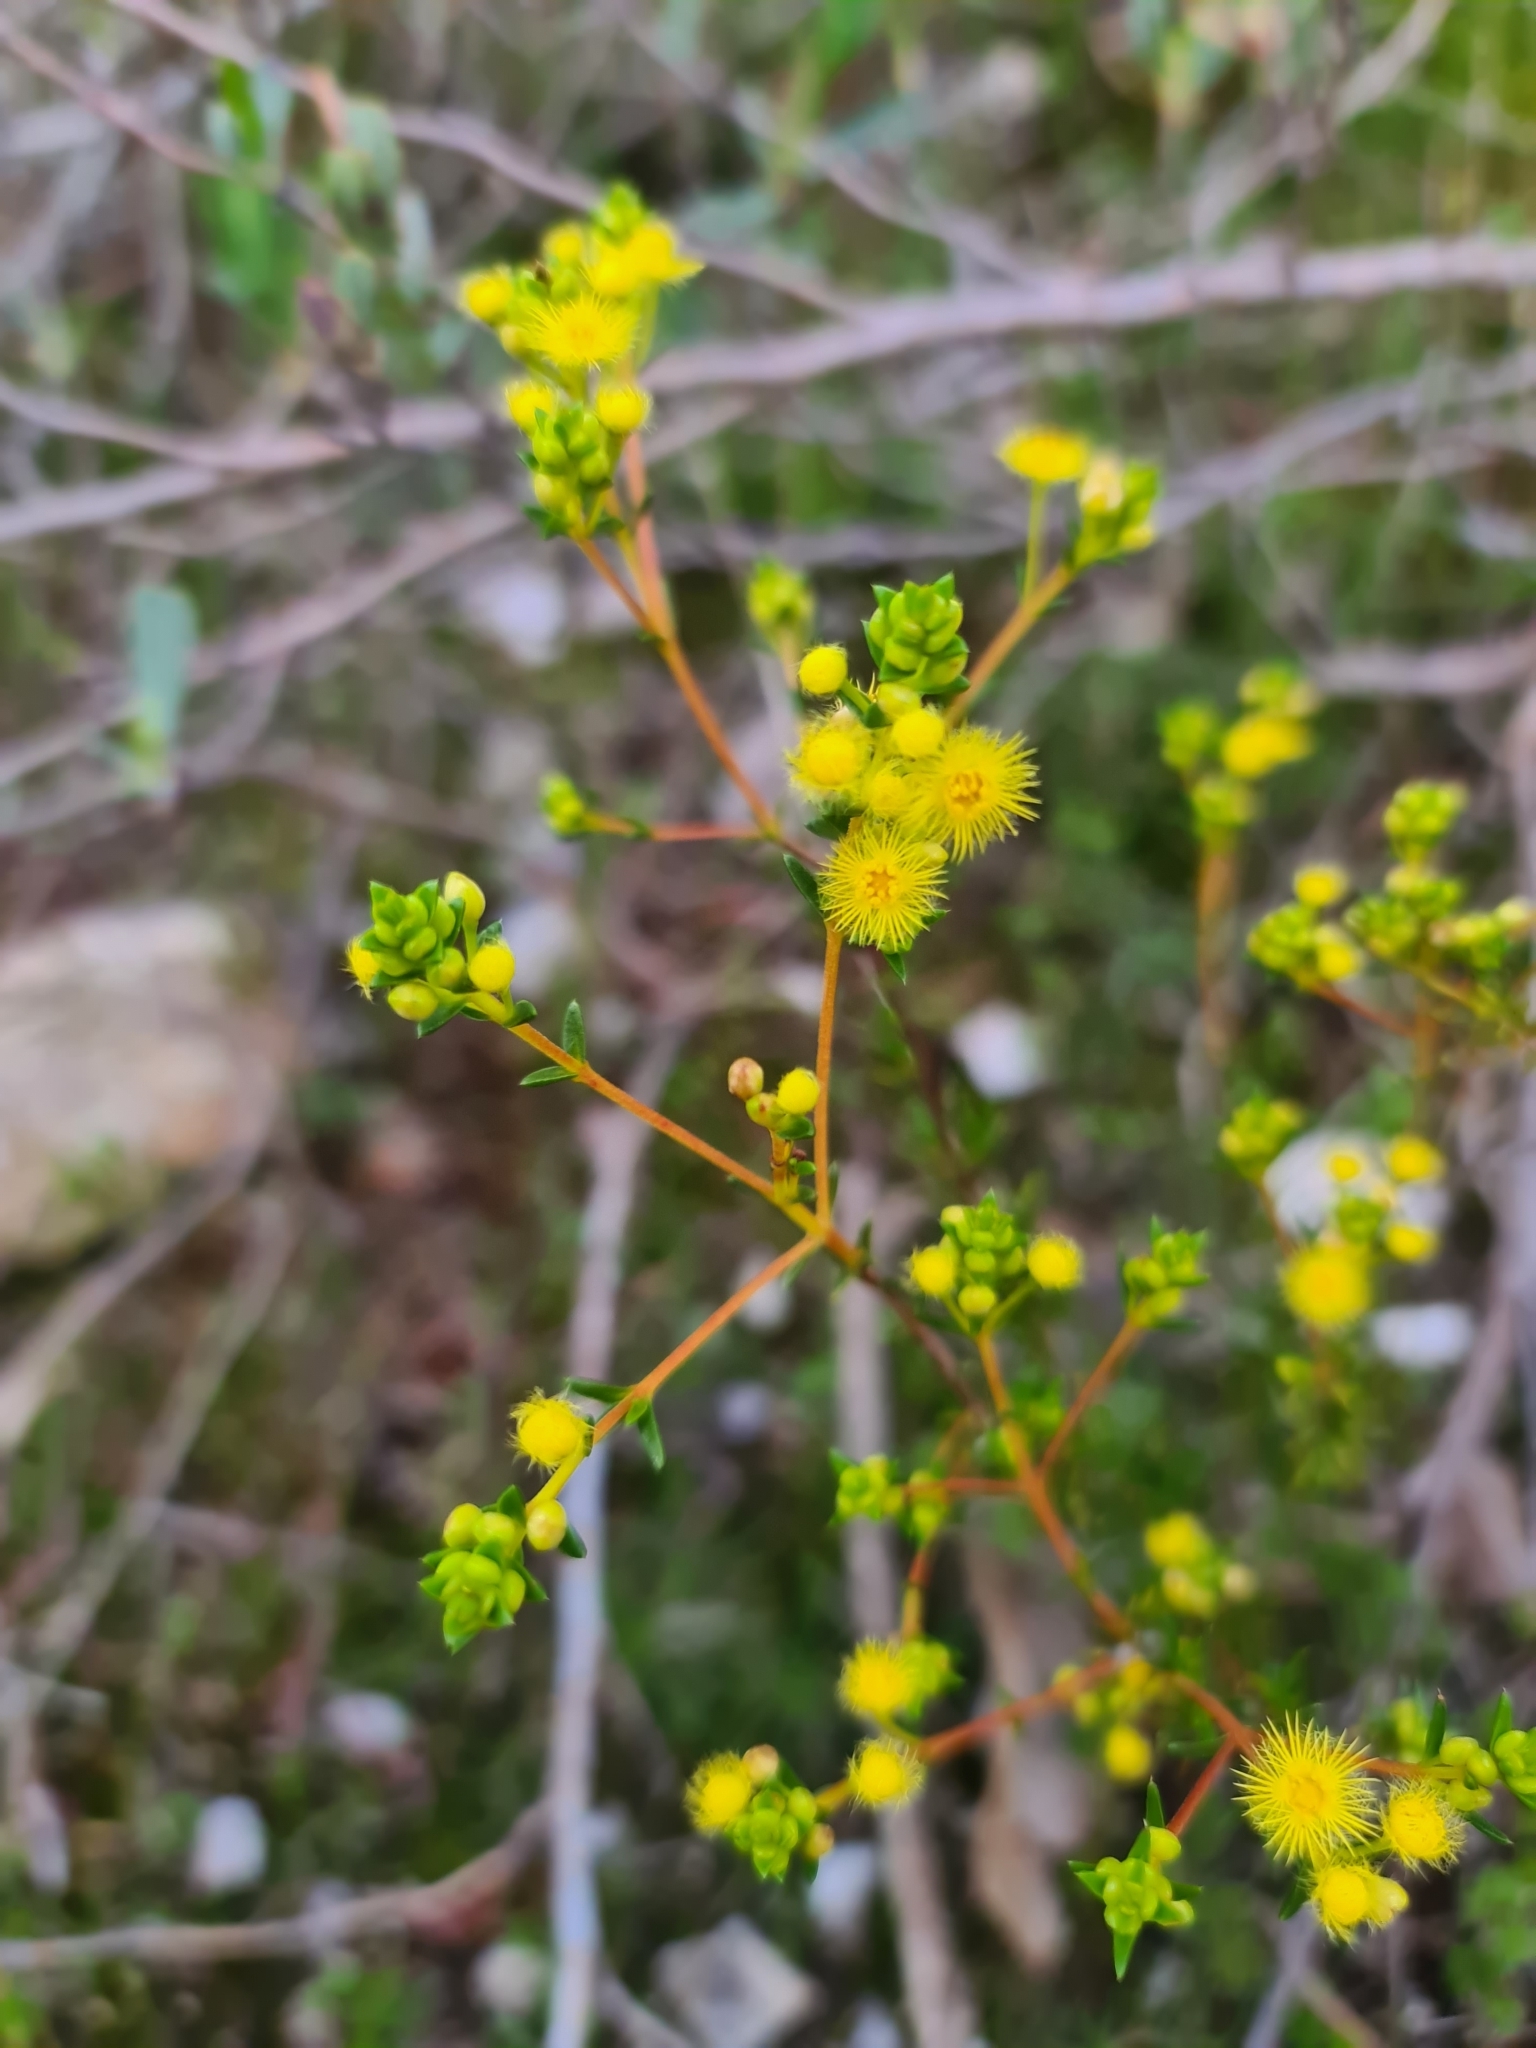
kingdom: Plantae
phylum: Tracheophyta
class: Magnoliopsida
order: Myrtales
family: Myrtaceae
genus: Verticordia
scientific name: Verticordia acerosa
